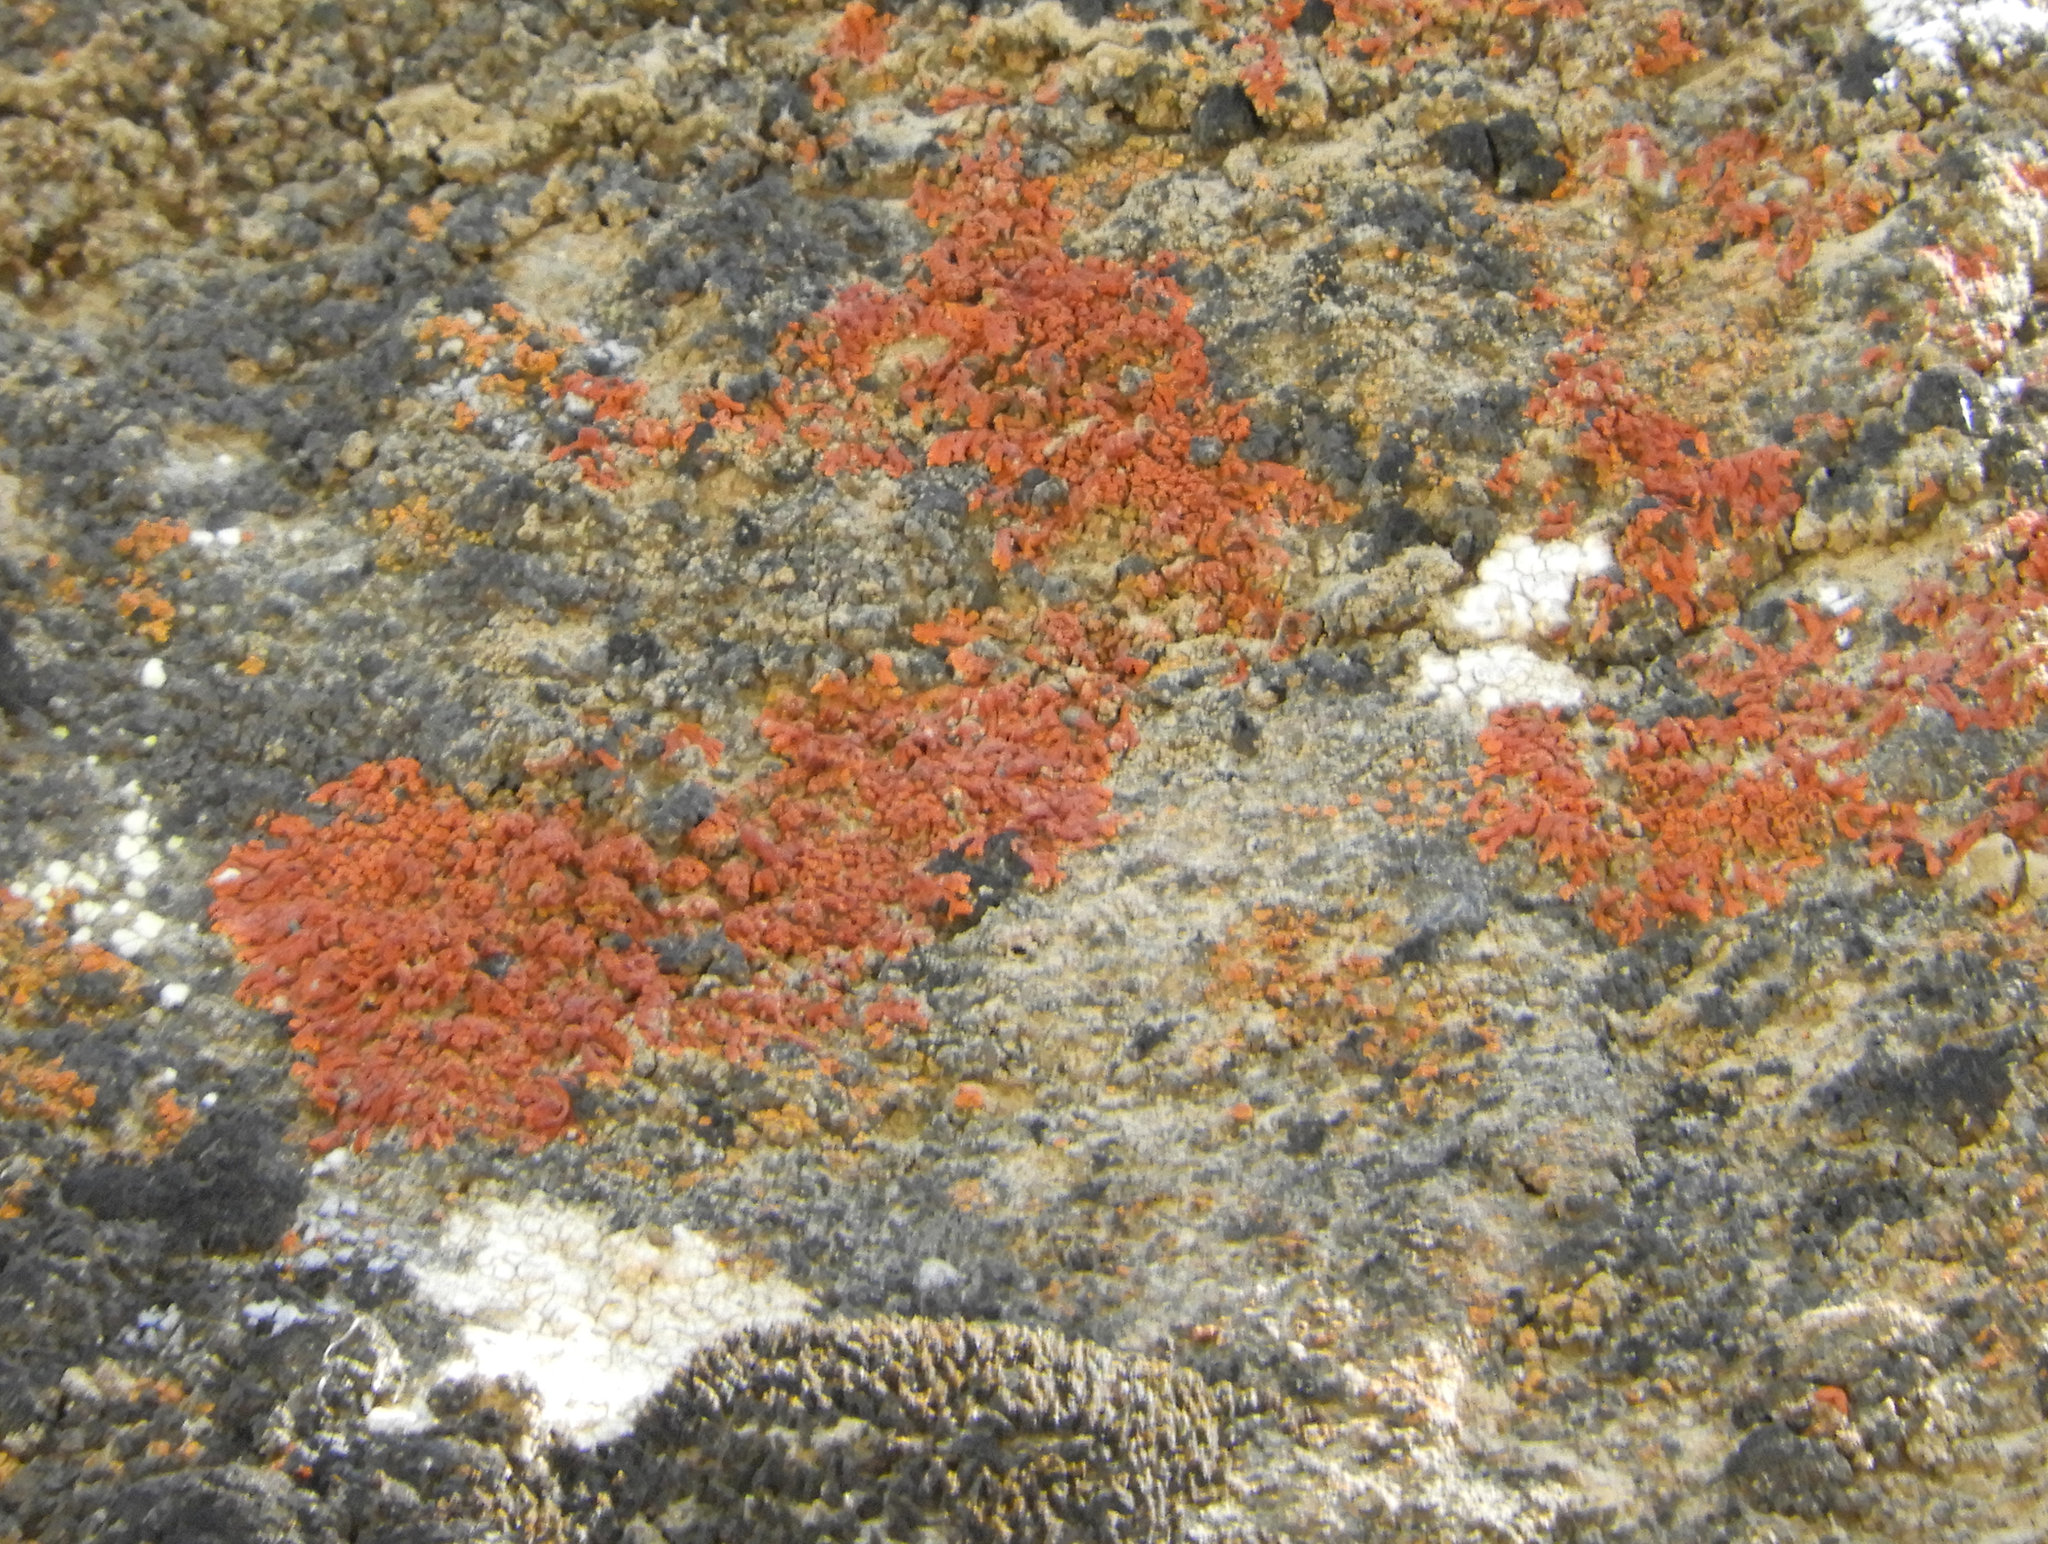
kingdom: Fungi
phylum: Ascomycota
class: Lecanoromycetes
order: Teloschistales
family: Teloschistaceae
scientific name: Teloschistaceae
